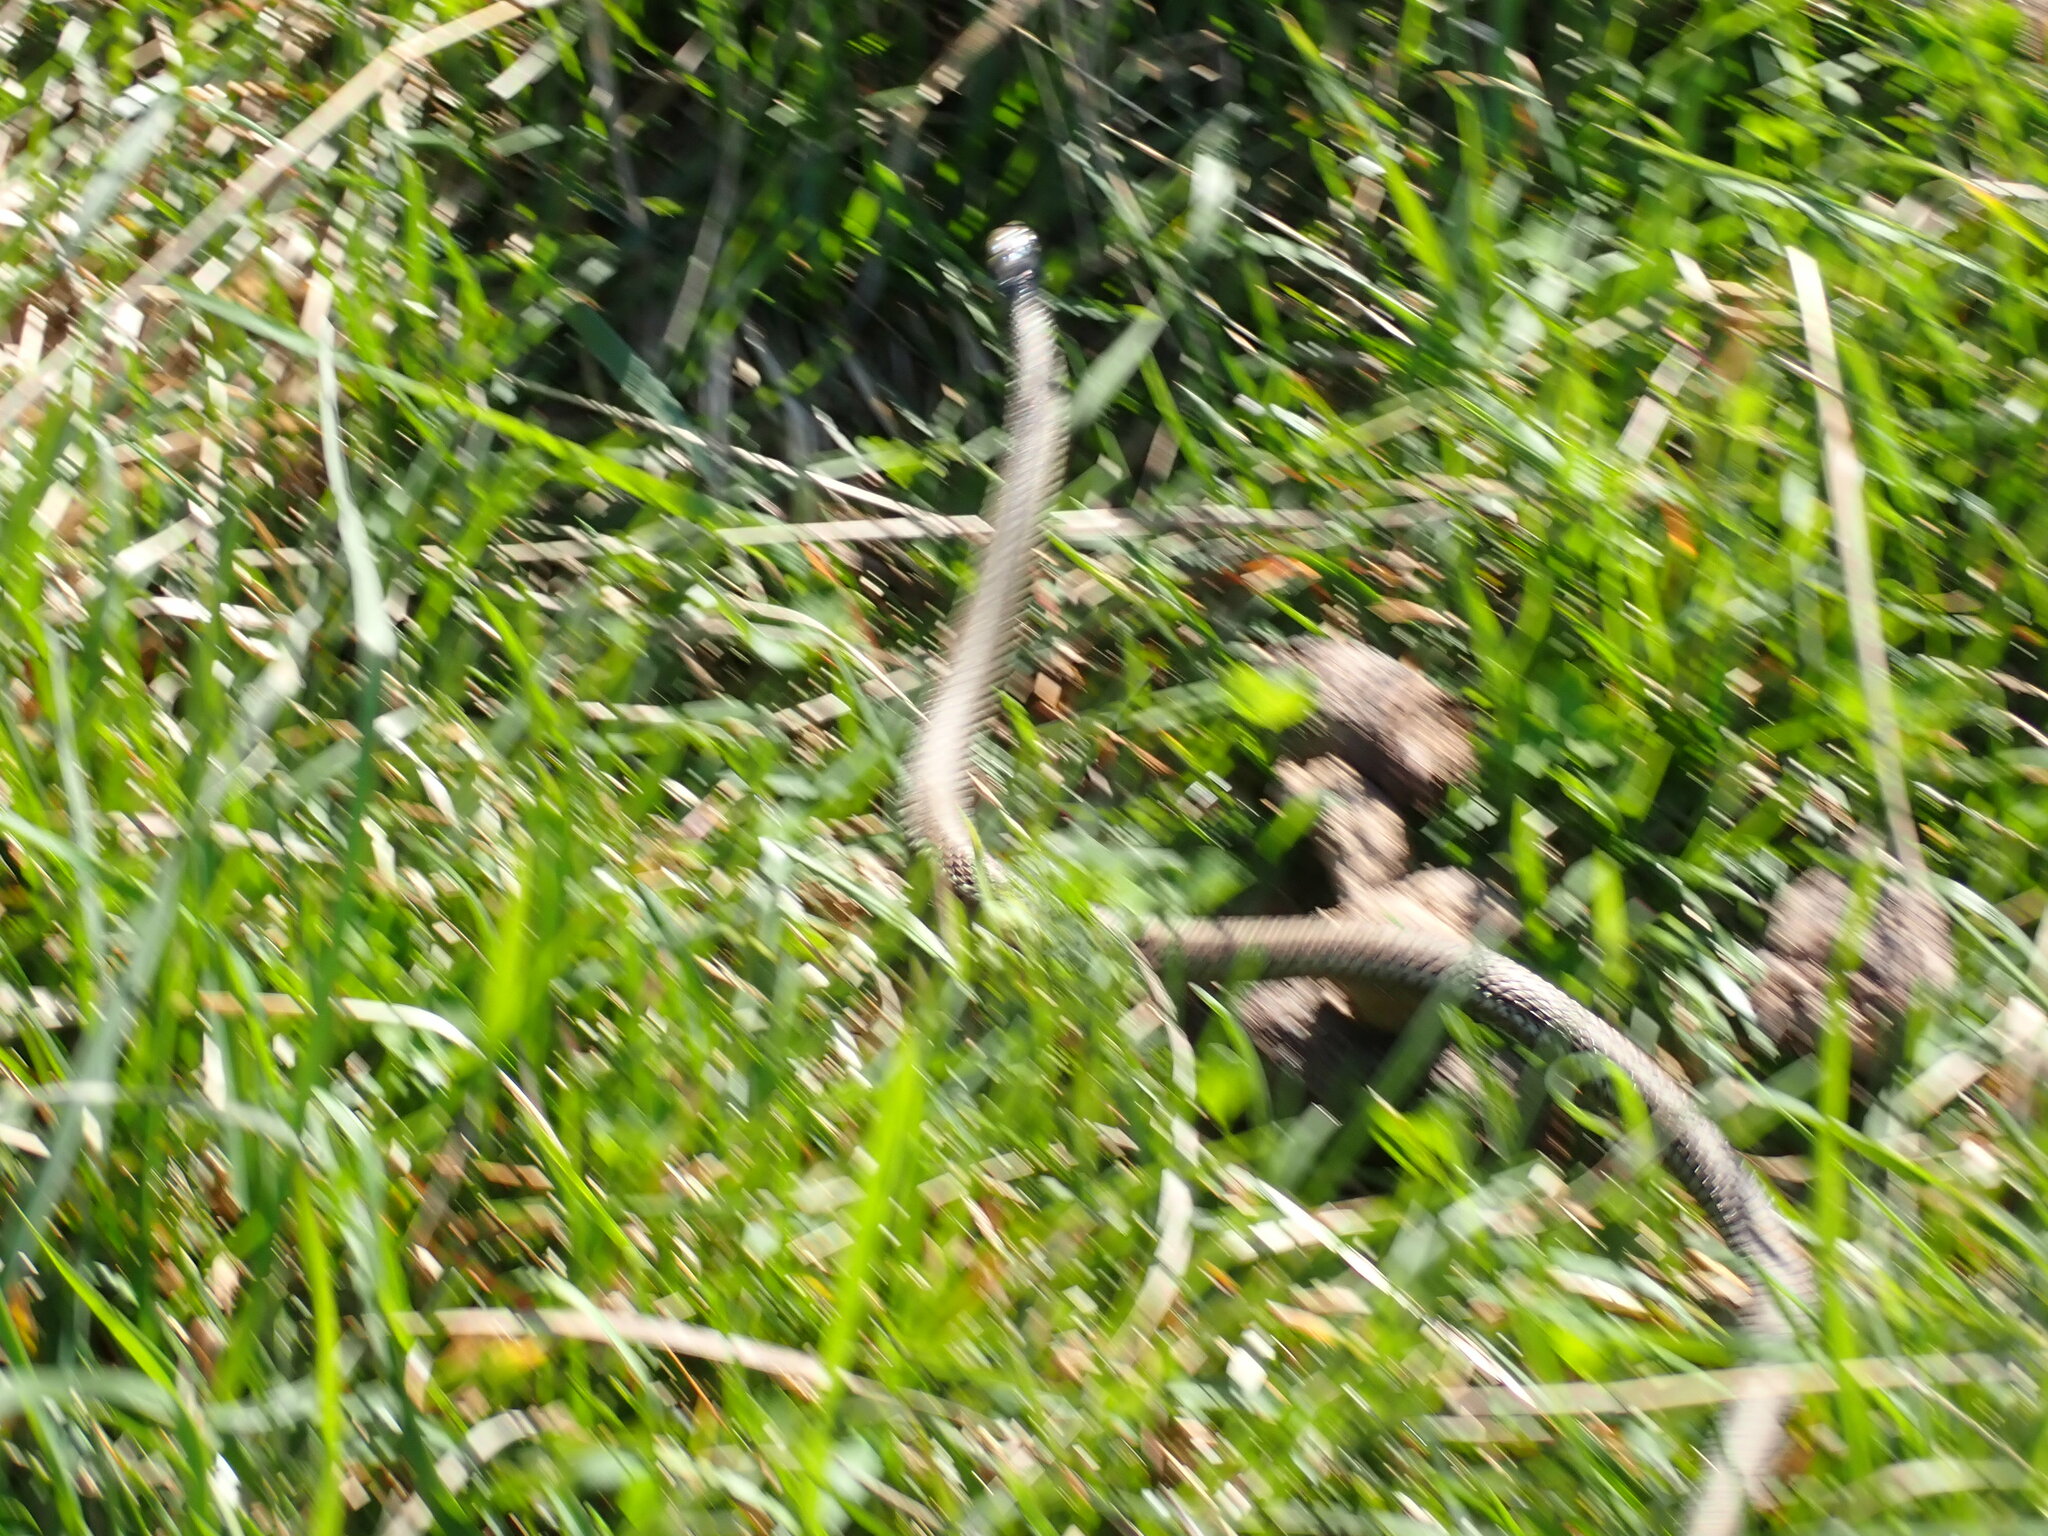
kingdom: Animalia
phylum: Chordata
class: Squamata
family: Colubridae
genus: Thamnophis
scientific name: Thamnophis ordinoides
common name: Northwestern garter snake
